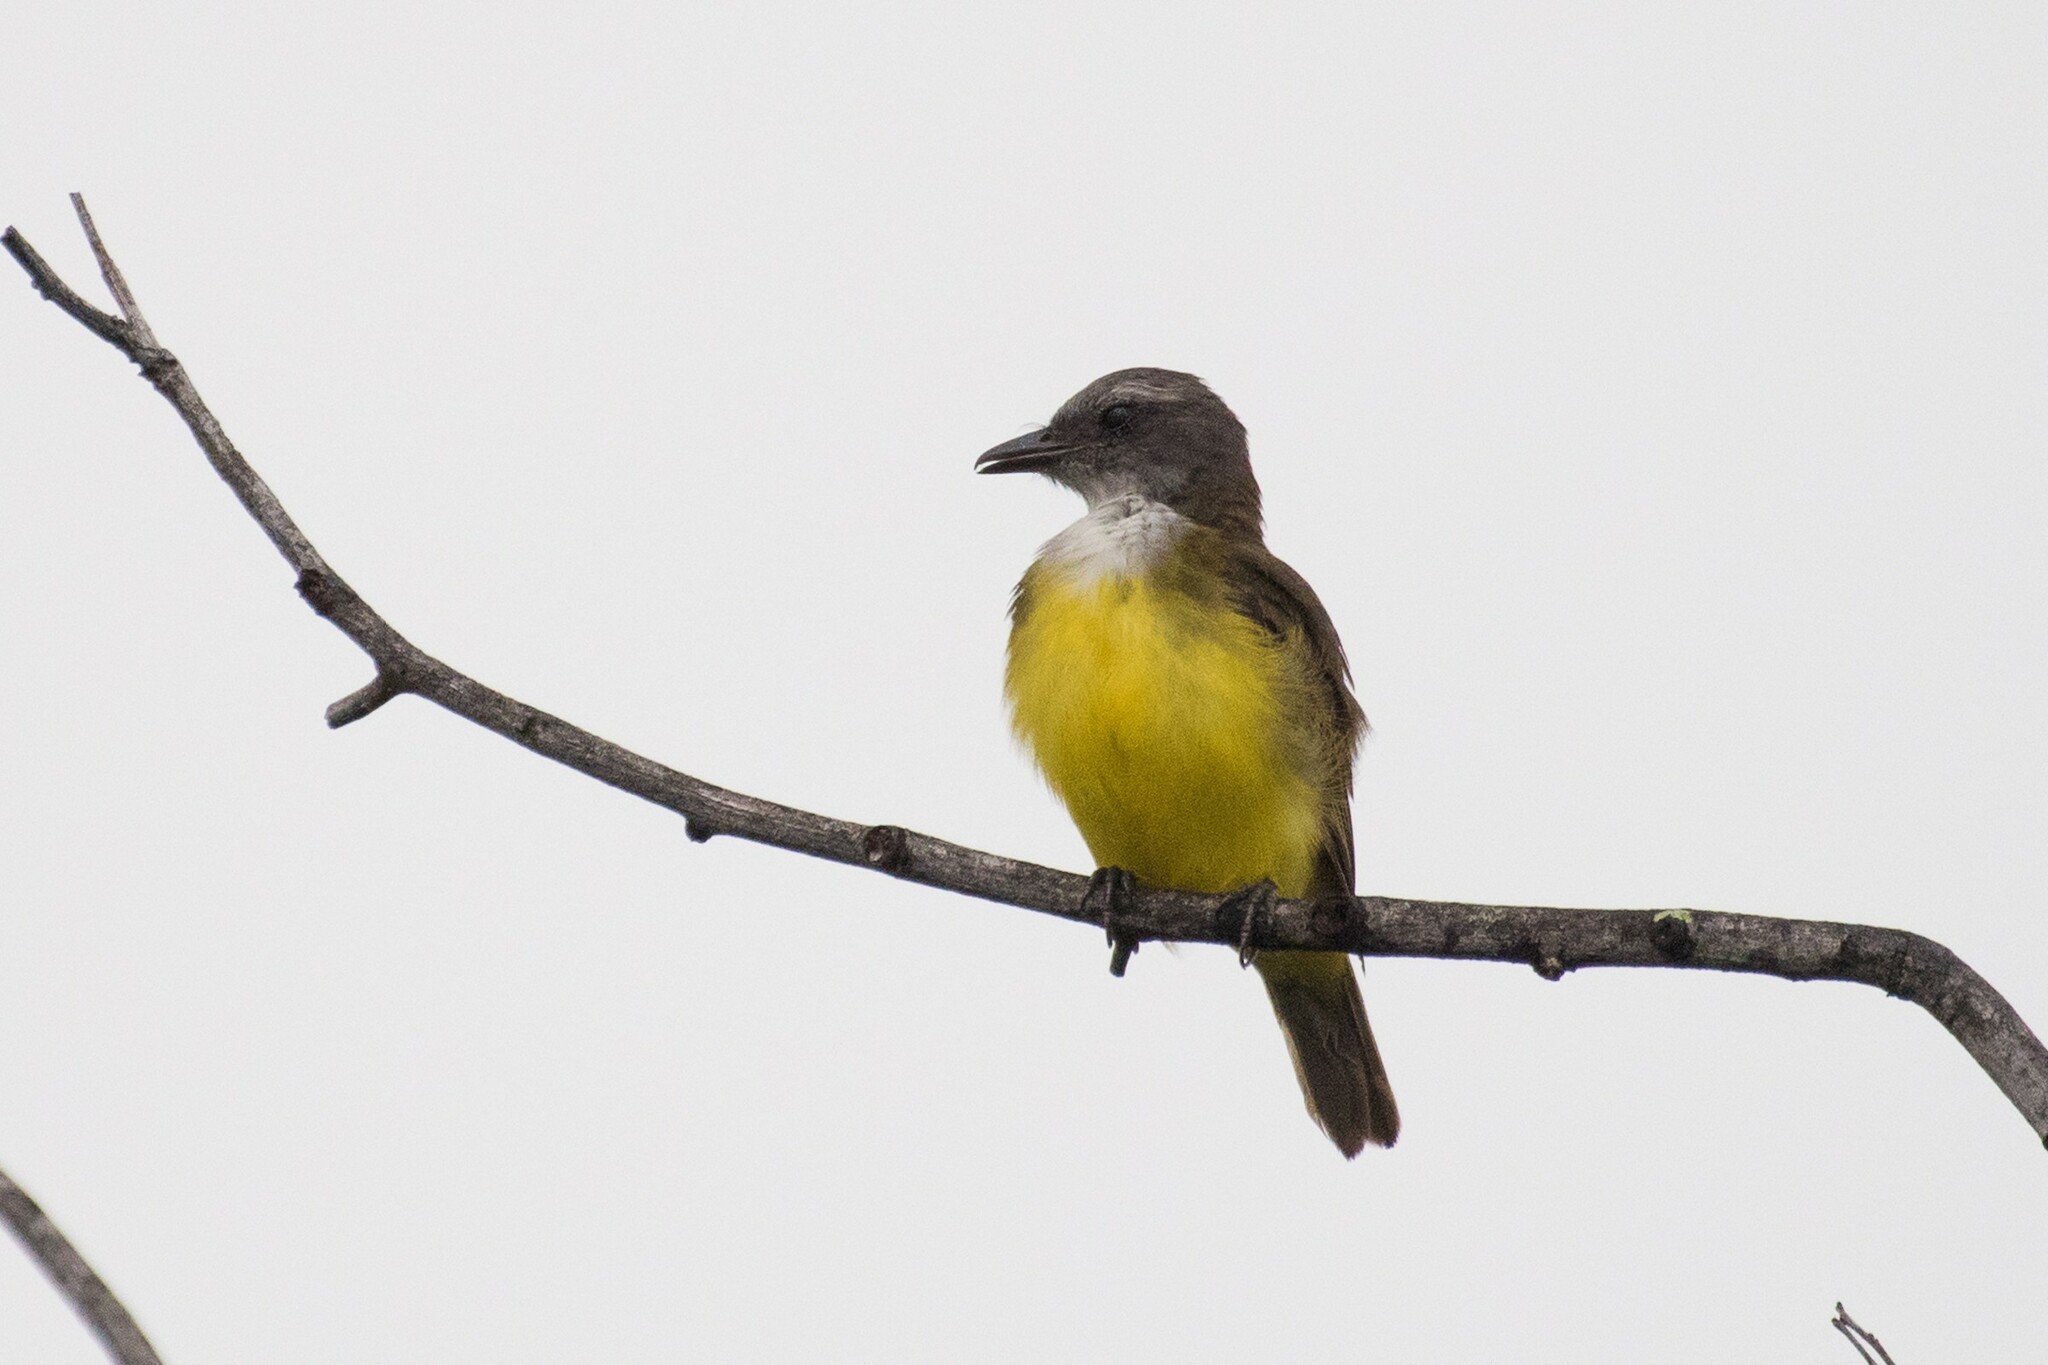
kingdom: Animalia
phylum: Chordata
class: Aves
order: Passeriformes
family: Tyrannidae
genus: Tyrannopsis
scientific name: Tyrannopsis sulphurea
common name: Sulphury flycatcher
